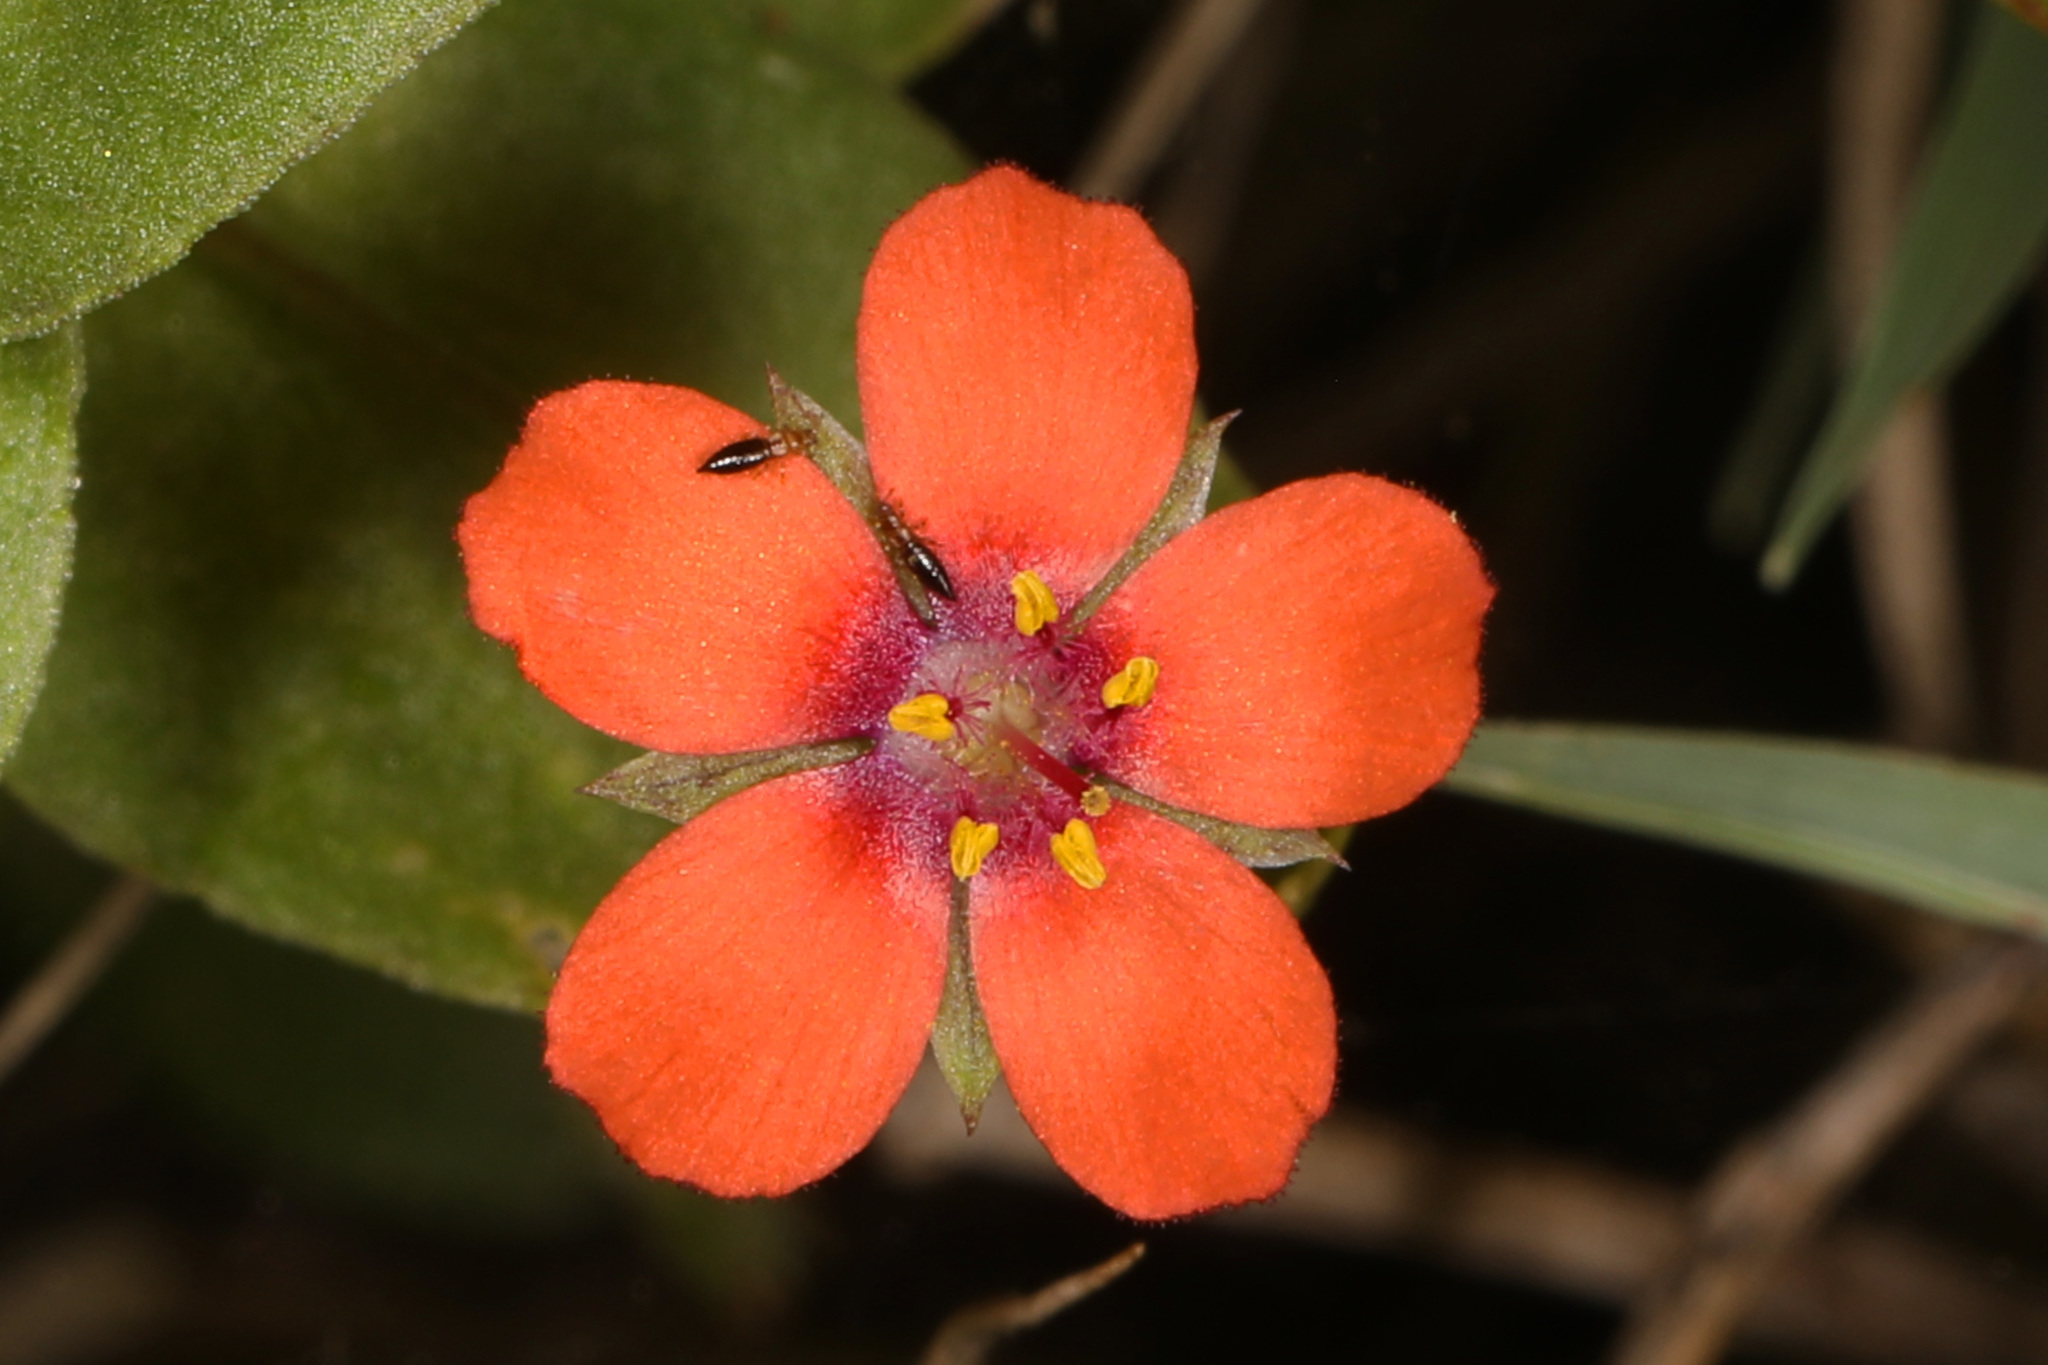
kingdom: Plantae
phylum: Tracheophyta
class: Magnoliopsida
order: Ericales
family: Primulaceae
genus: Lysimachia
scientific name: Lysimachia arvensis
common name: Scarlet pimpernel
